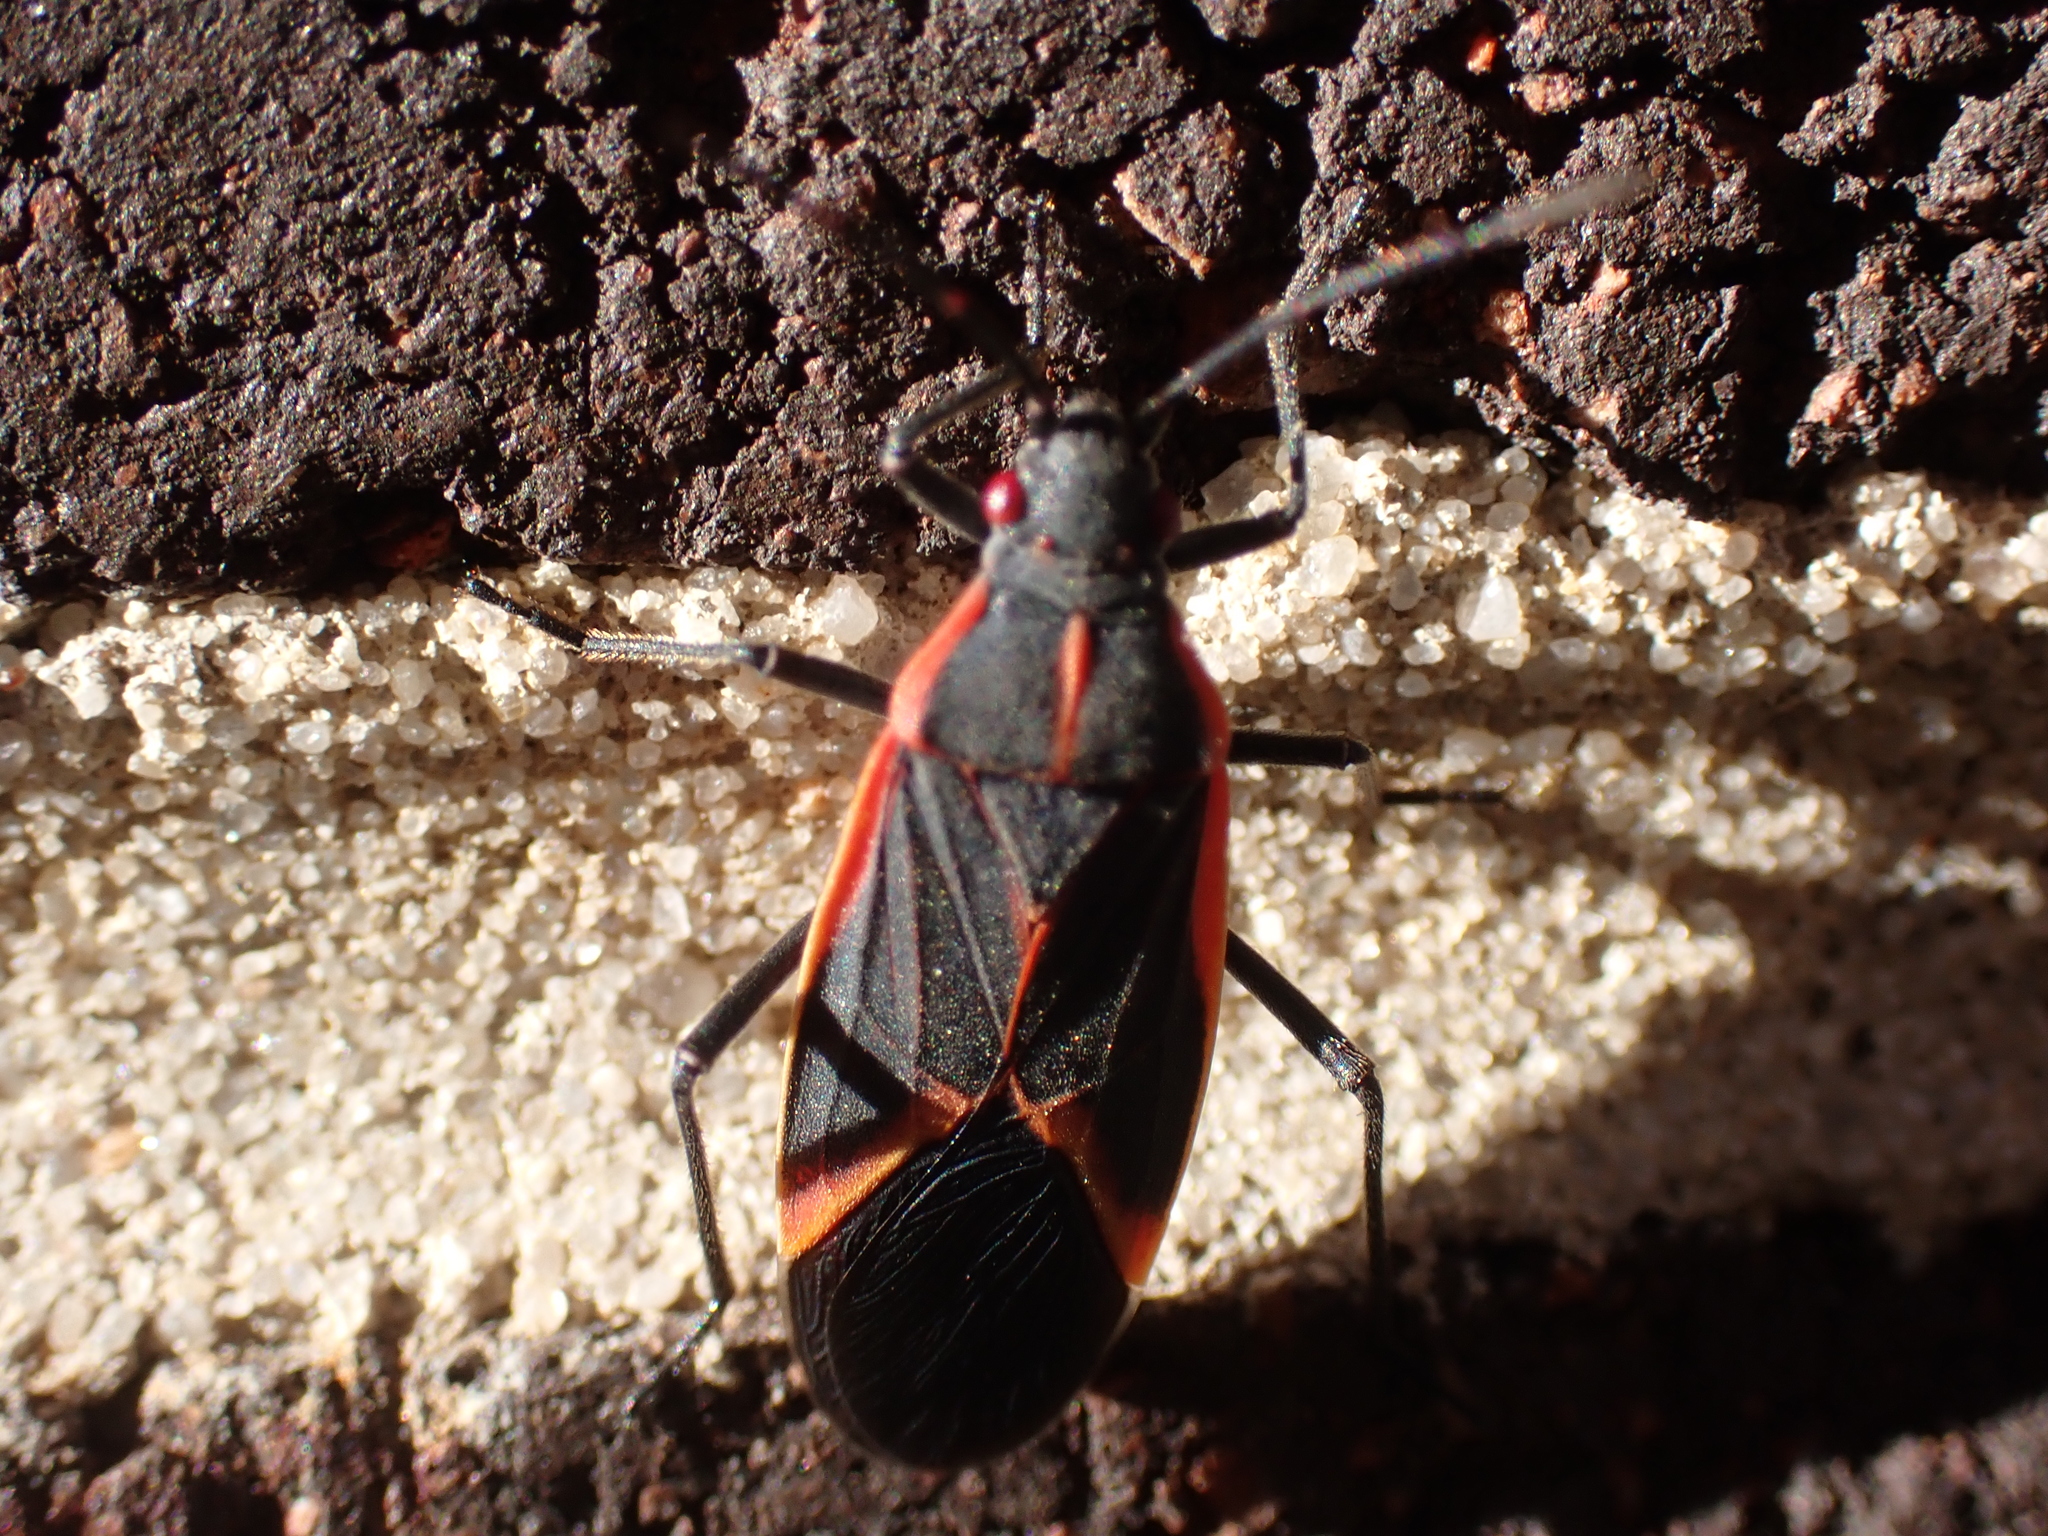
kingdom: Animalia
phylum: Arthropoda
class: Insecta
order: Hemiptera
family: Rhopalidae
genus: Boisea
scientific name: Boisea trivittata
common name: Boxelder bug
